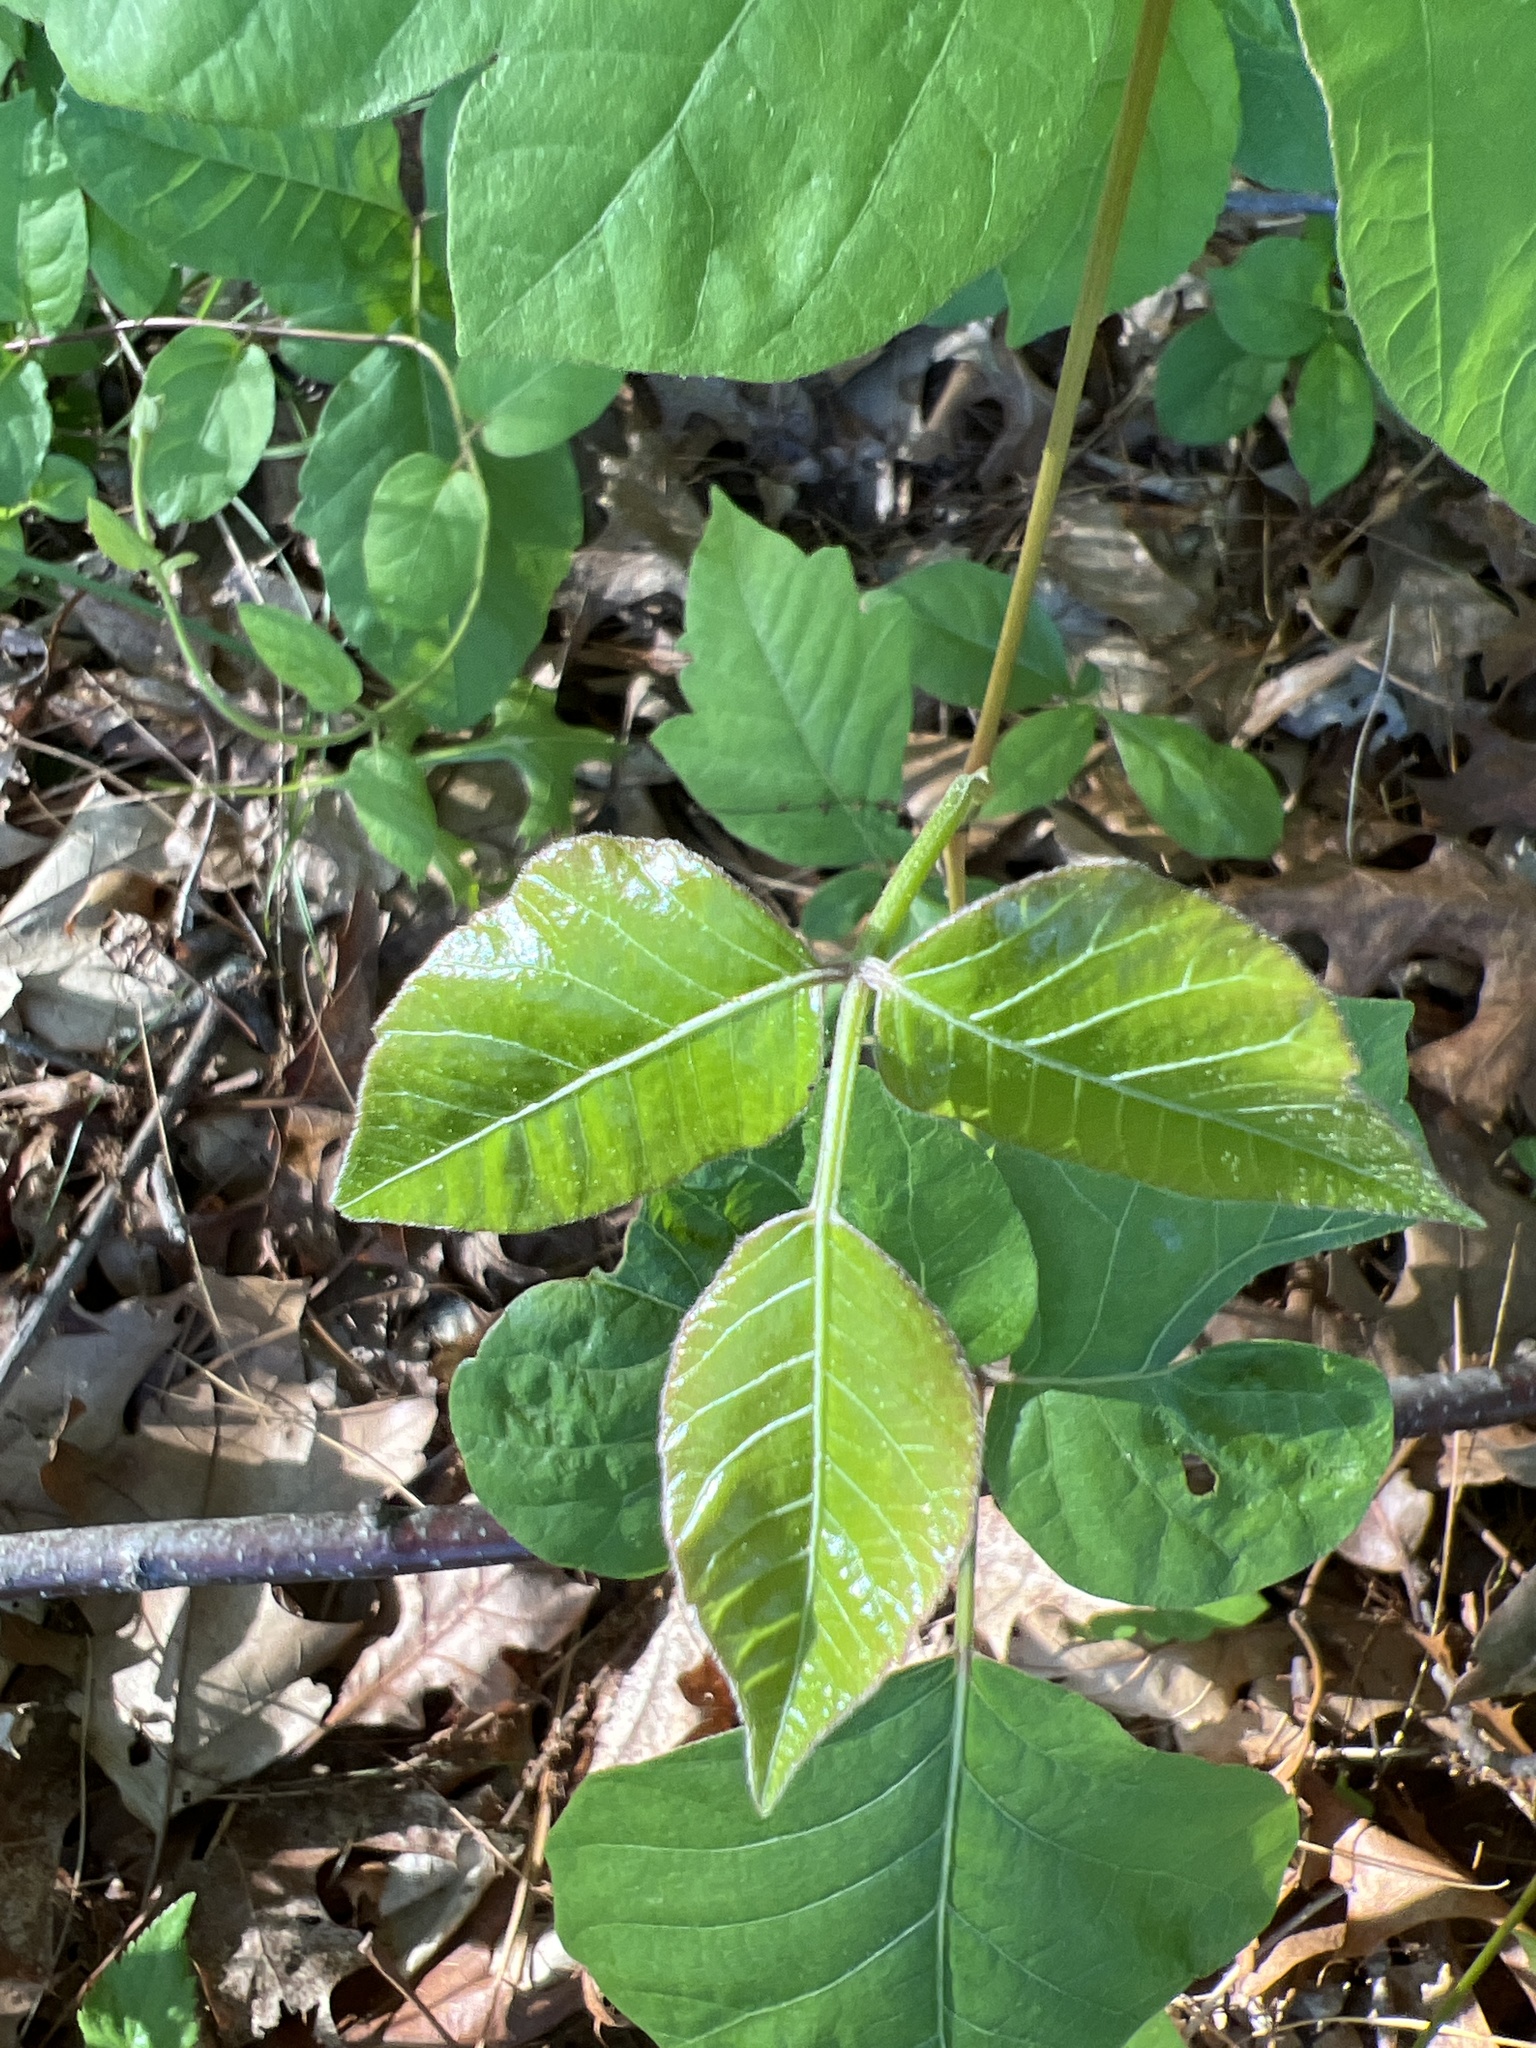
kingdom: Plantae
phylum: Tracheophyta
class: Magnoliopsida
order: Sapindales
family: Anacardiaceae
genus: Toxicodendron
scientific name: Toxicodendron radicans
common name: Poison ivy
